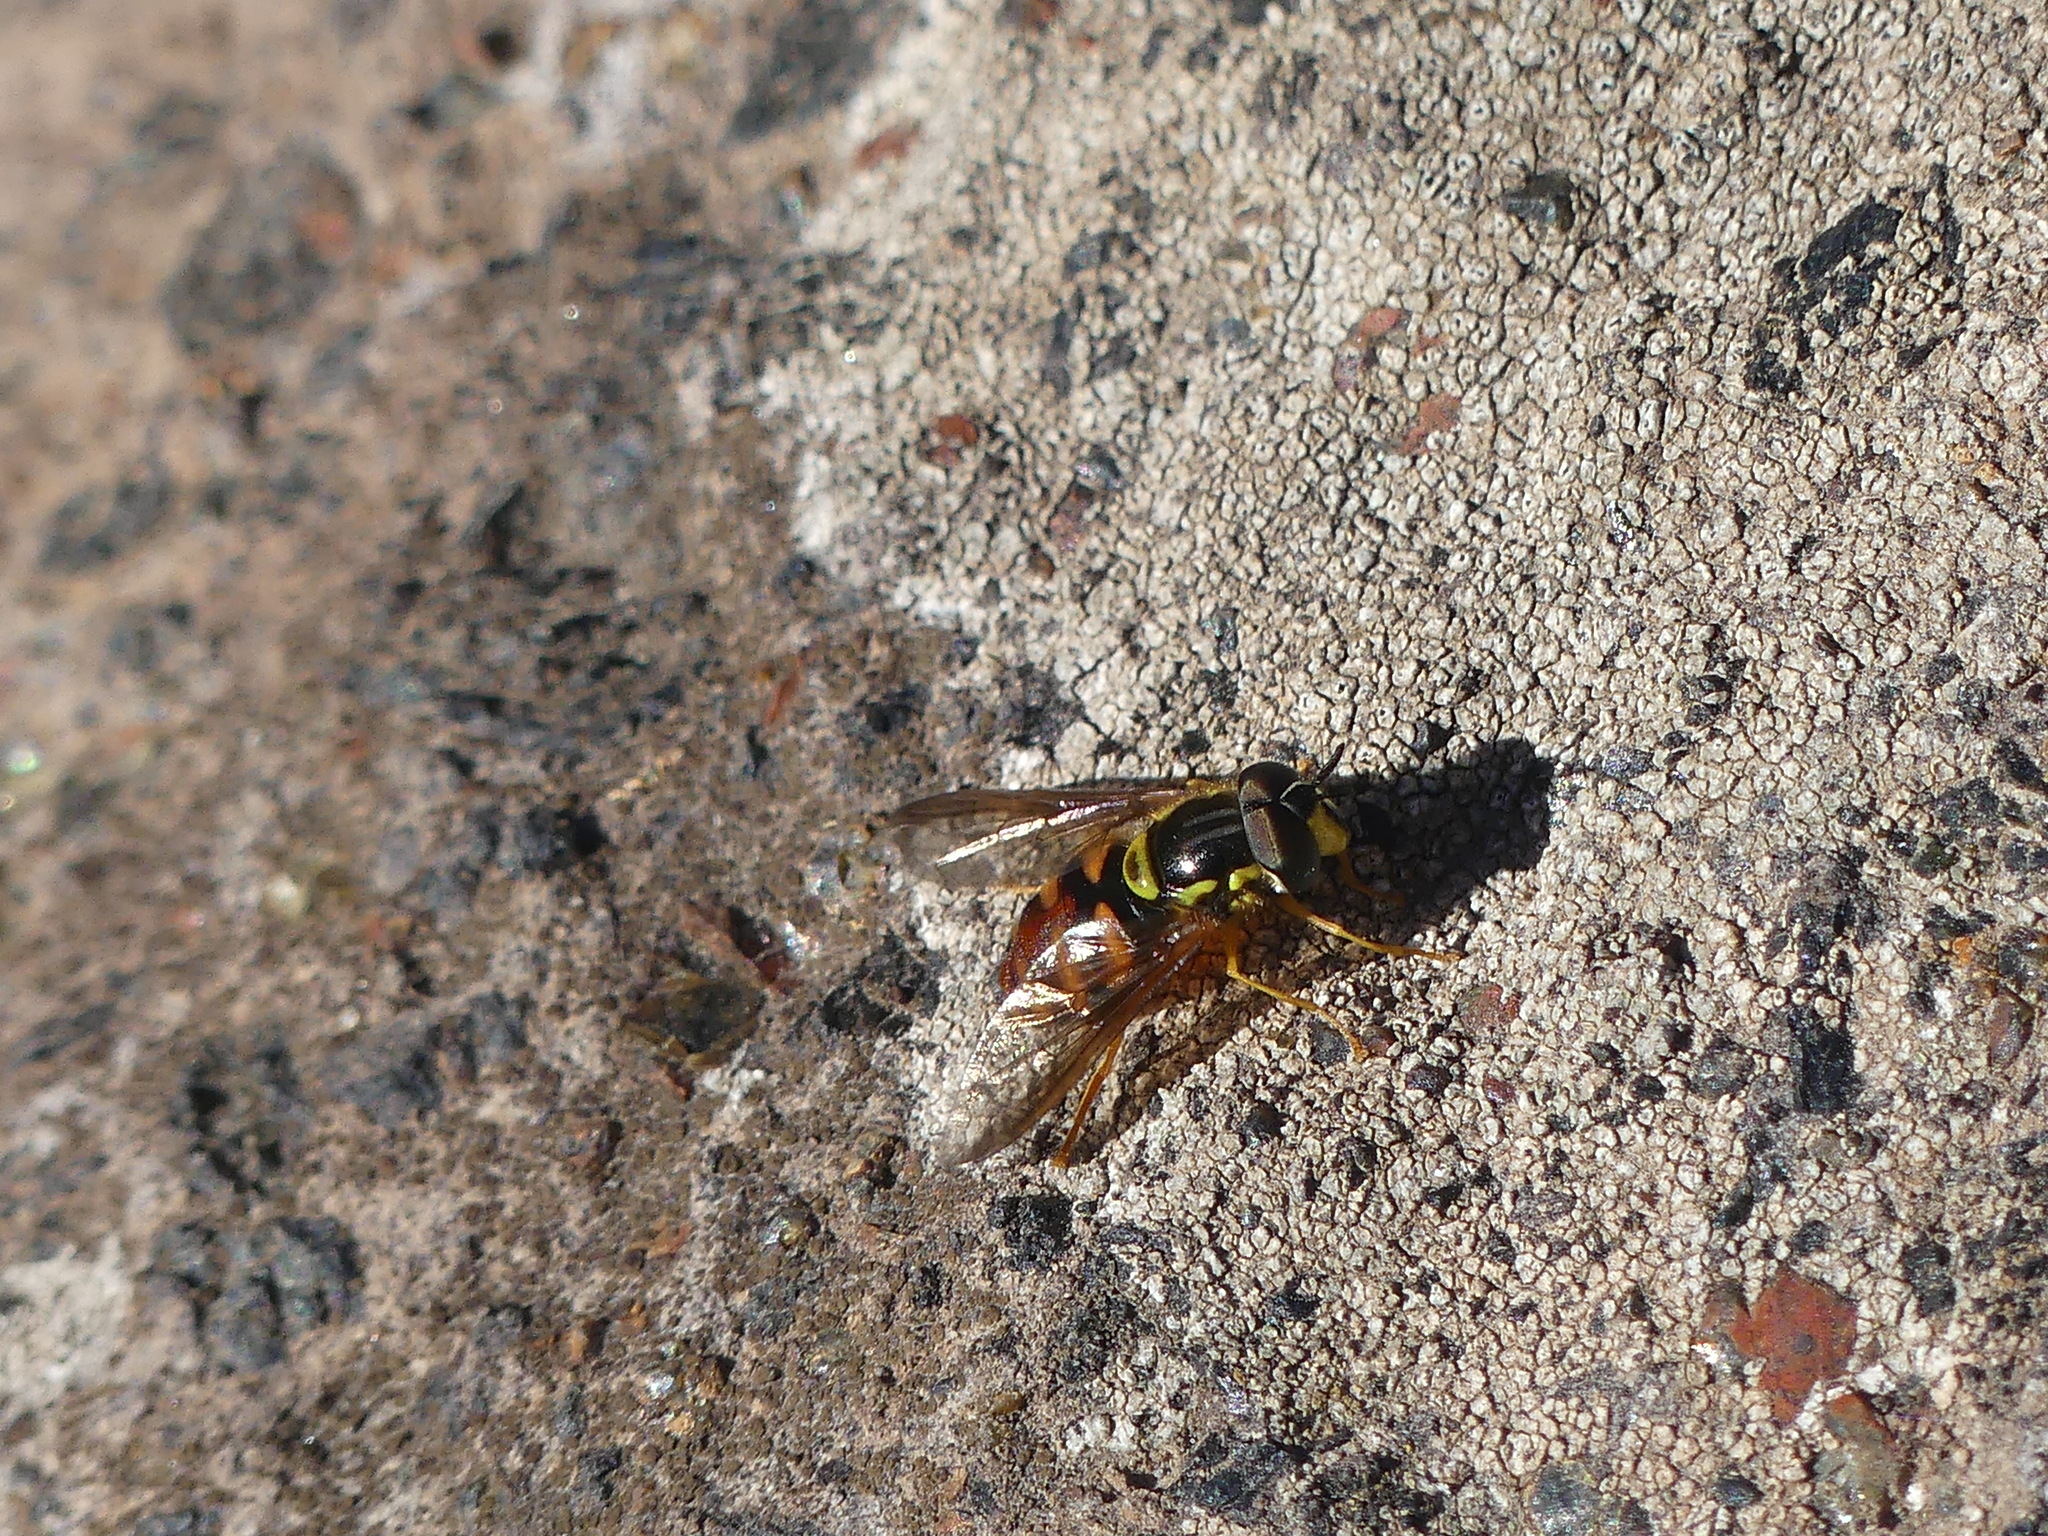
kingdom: Animalia
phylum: Arthropoda
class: Insecta
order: Diptera
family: Syrphidae
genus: Chrysotoxum
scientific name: Chrysotoxum triarcuatum
